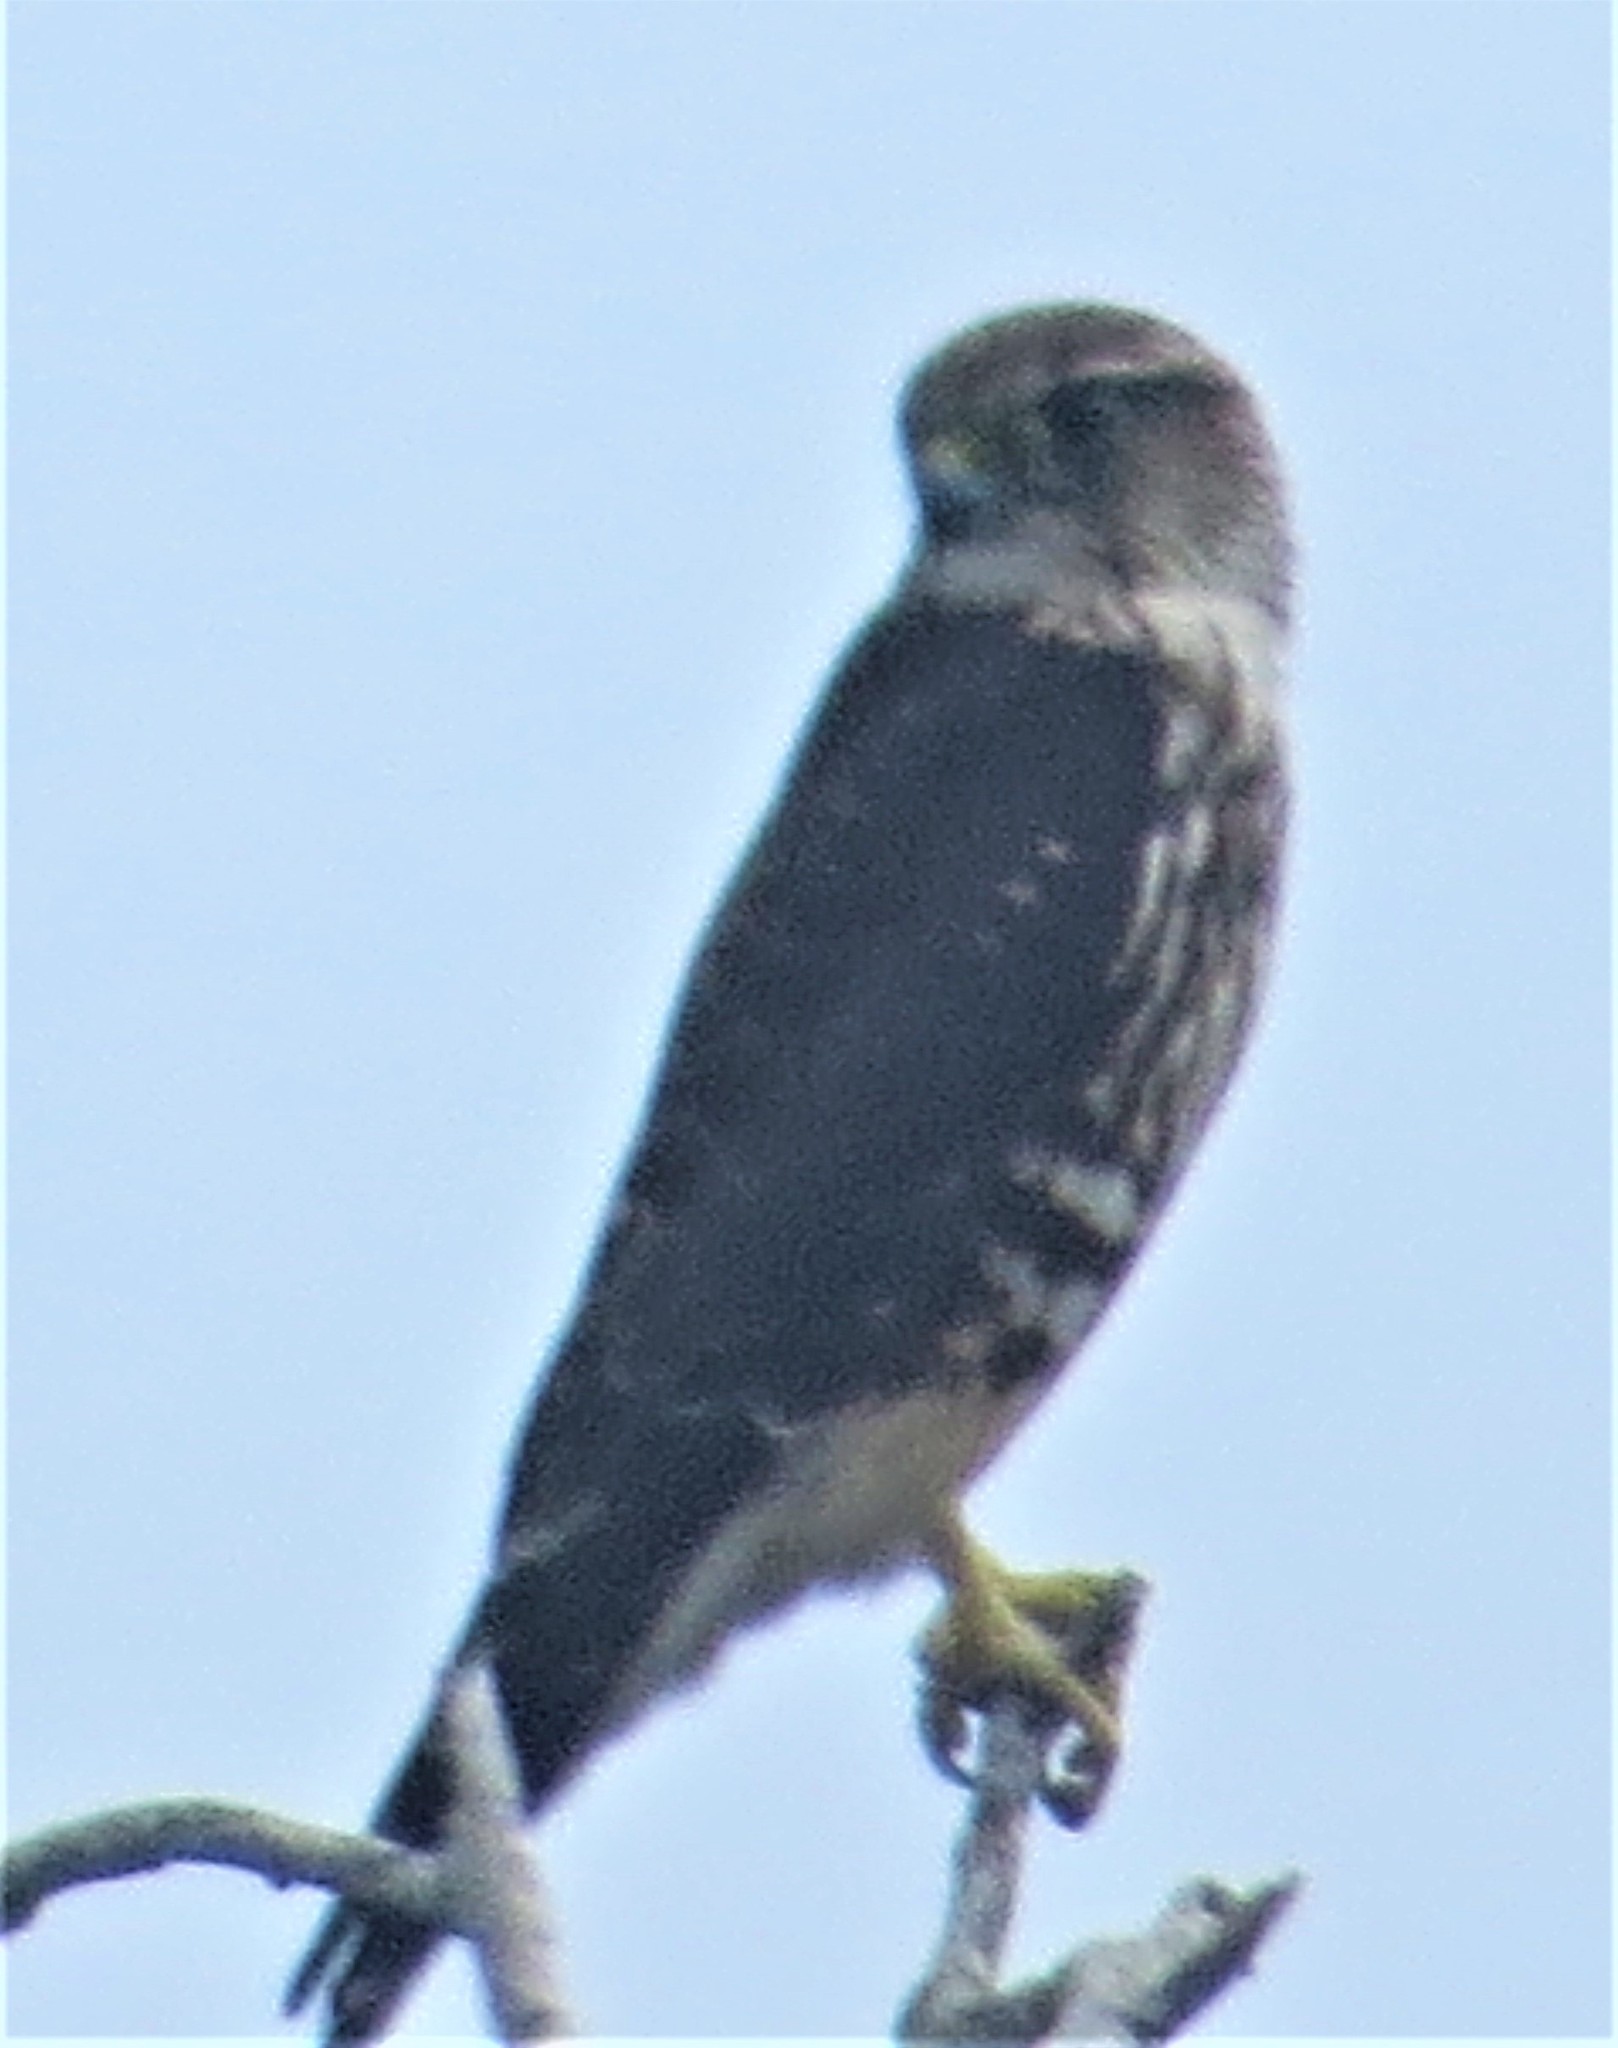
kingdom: Animalia
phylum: Chordata
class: Aves
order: Falconiformes
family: Falconidae
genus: Falco
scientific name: Falco columbarius
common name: Merlin
